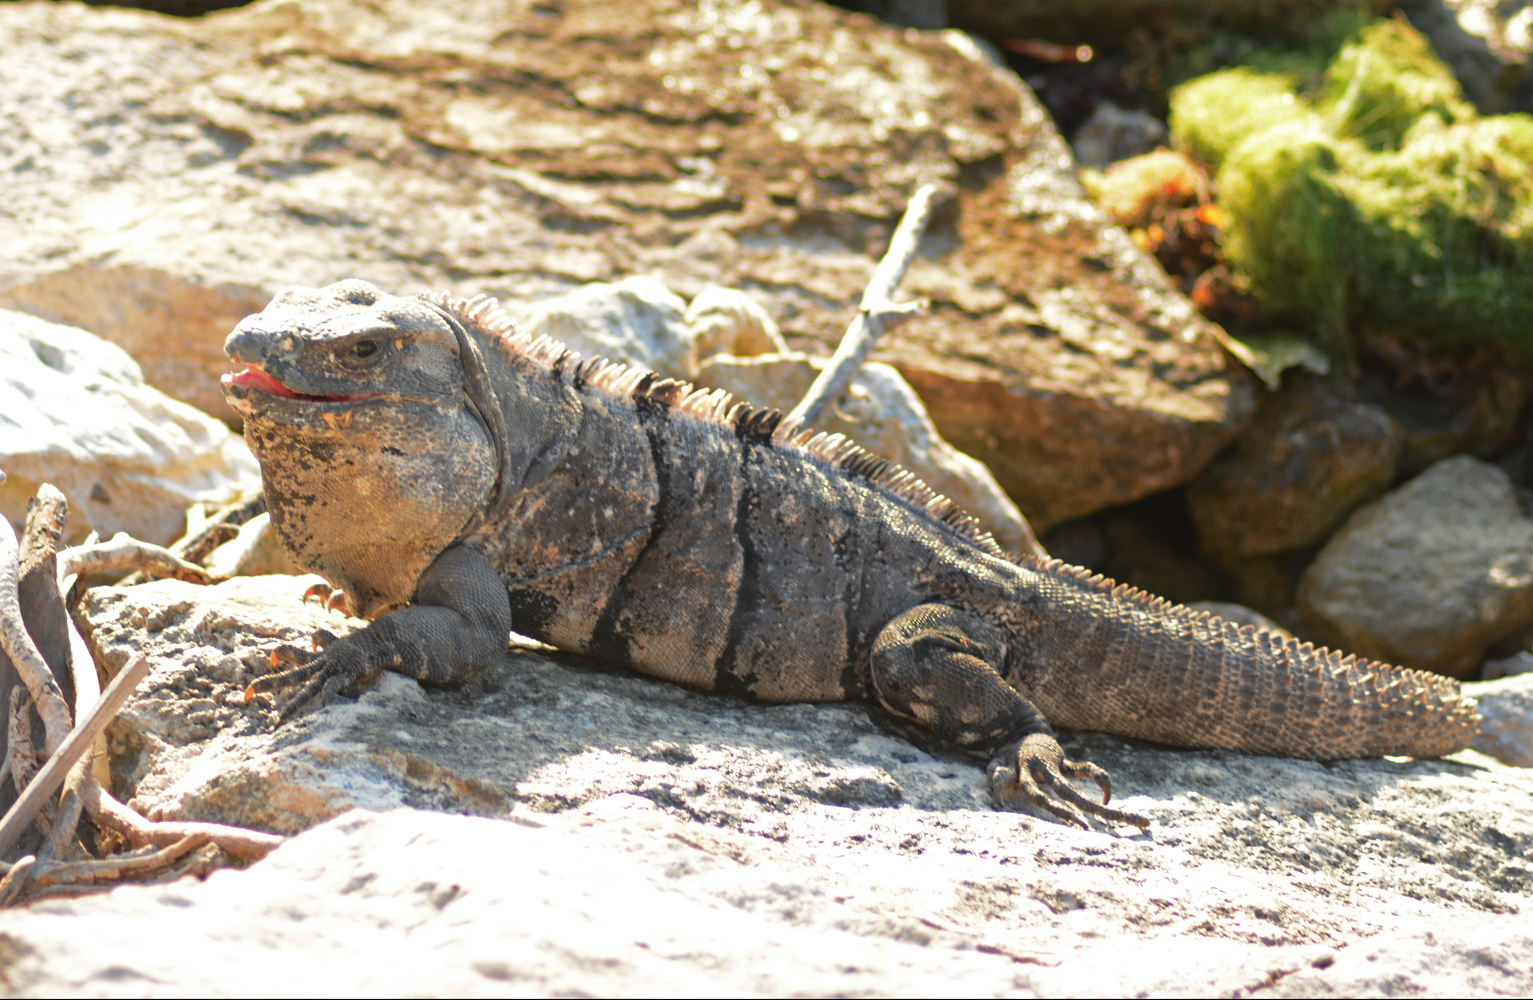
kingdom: Animalia
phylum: Chordata
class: Squamata
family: Iguanidae
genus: Ctenosaura
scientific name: Ctenosaura similis
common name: Black spiny-tailed iguana
